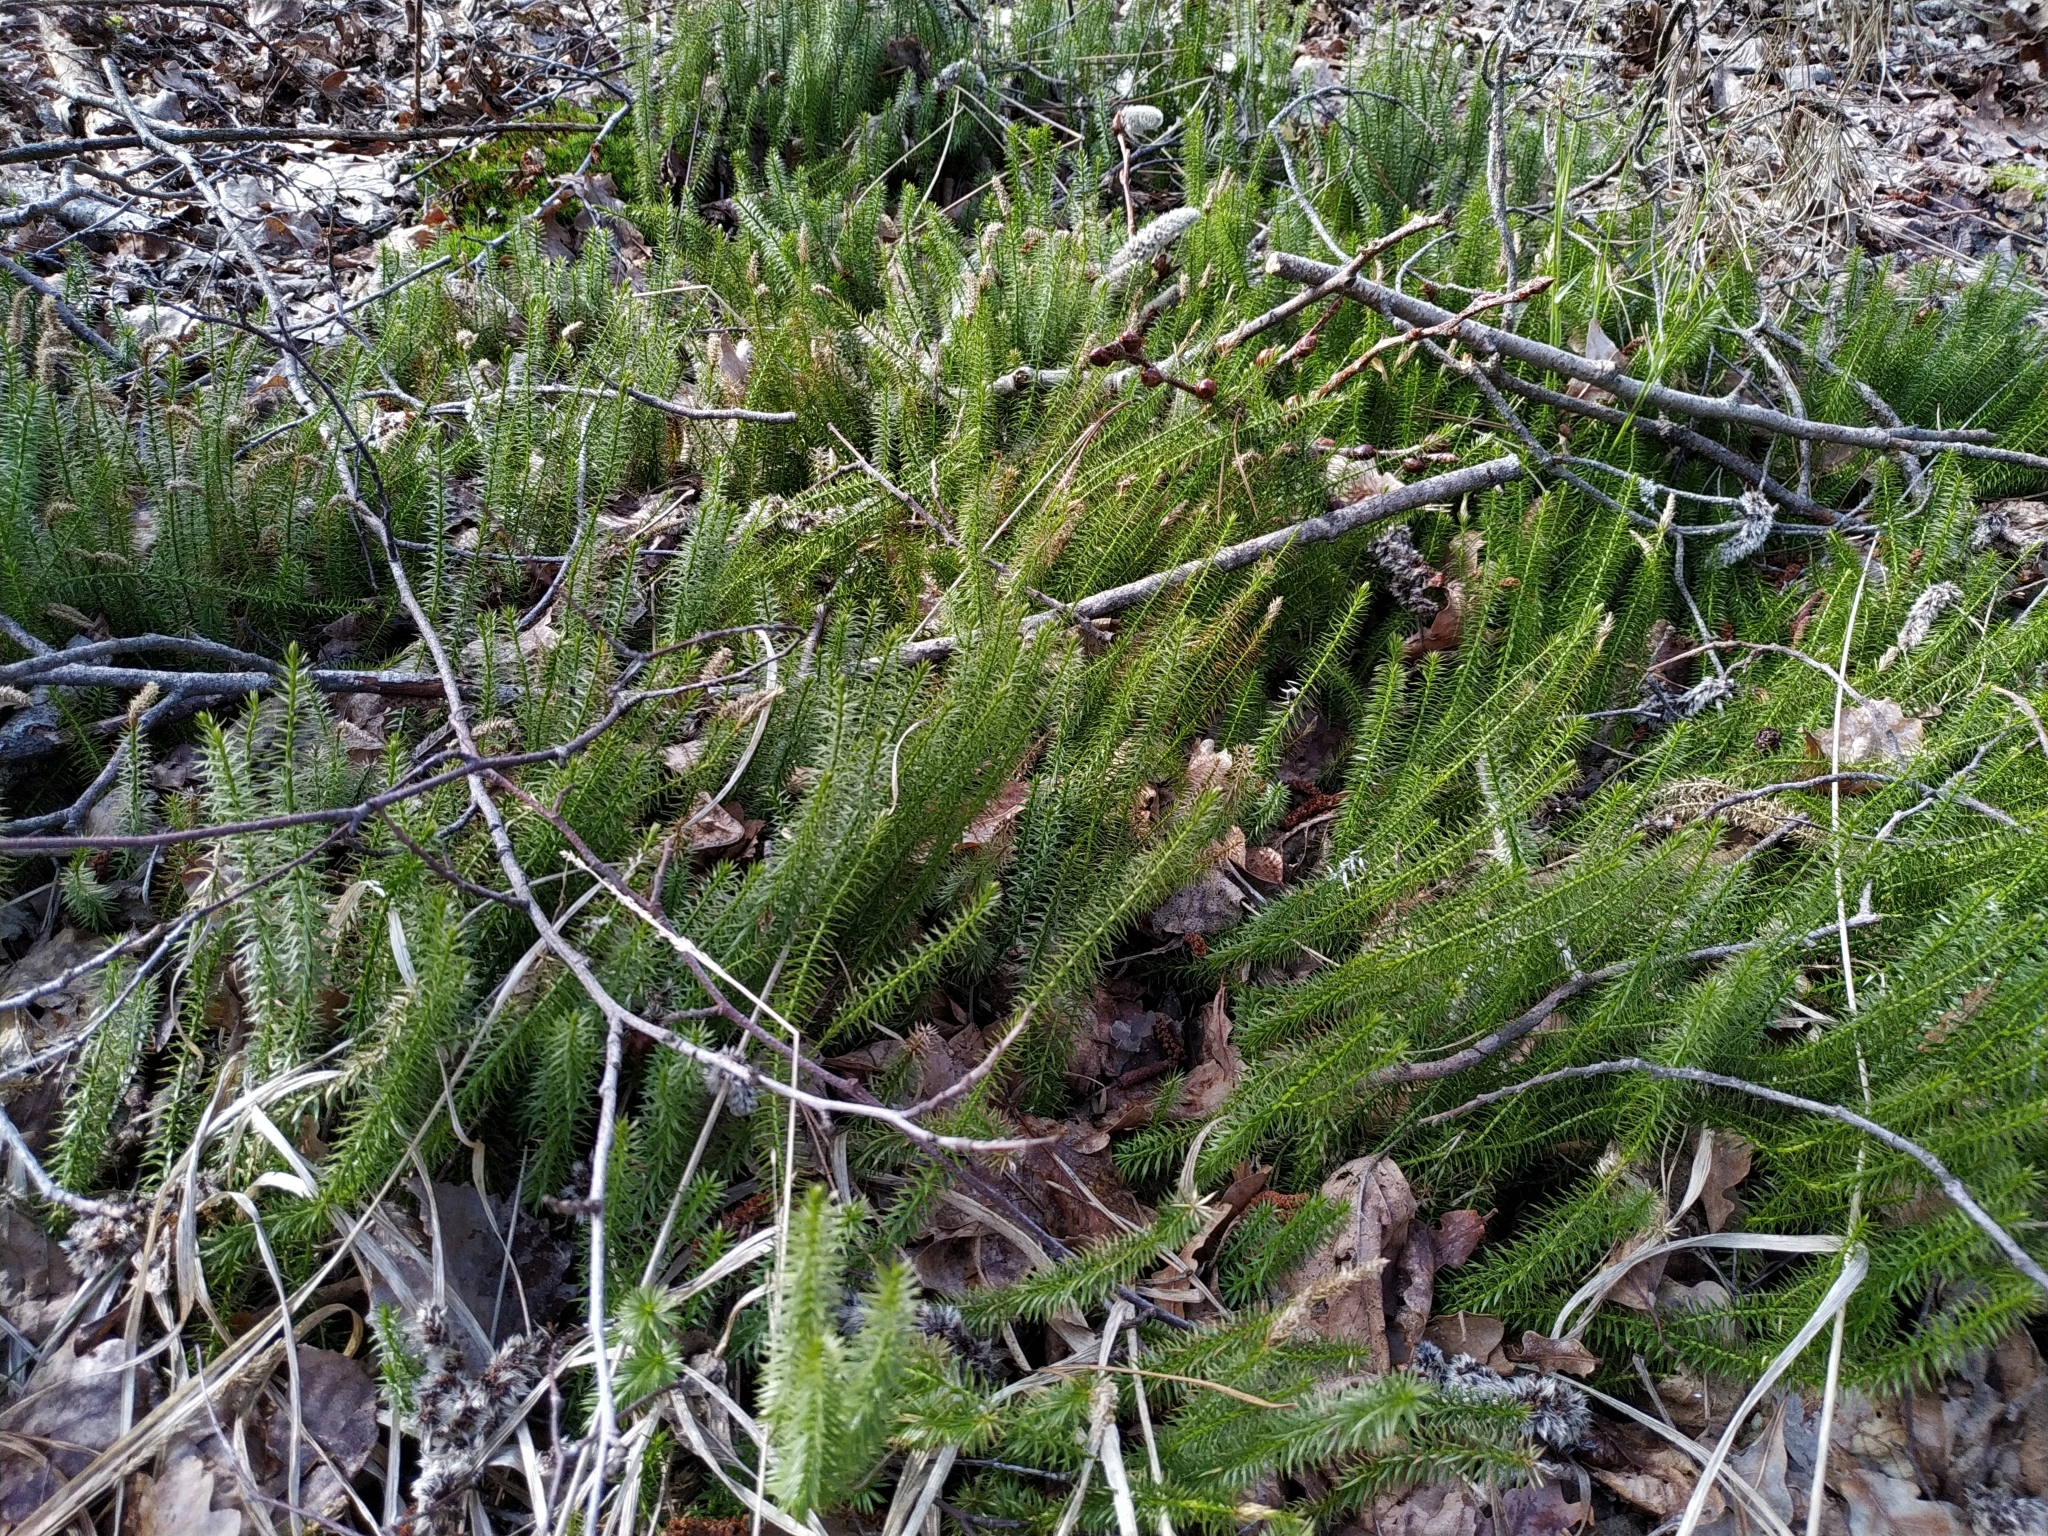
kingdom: Plantae
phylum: Tracheophyta
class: Lycopodiopsida
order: Lycopodiales
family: Lycopodiaceae
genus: Spinulum
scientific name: Spinulum annotinum
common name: Interrupted club-moss
